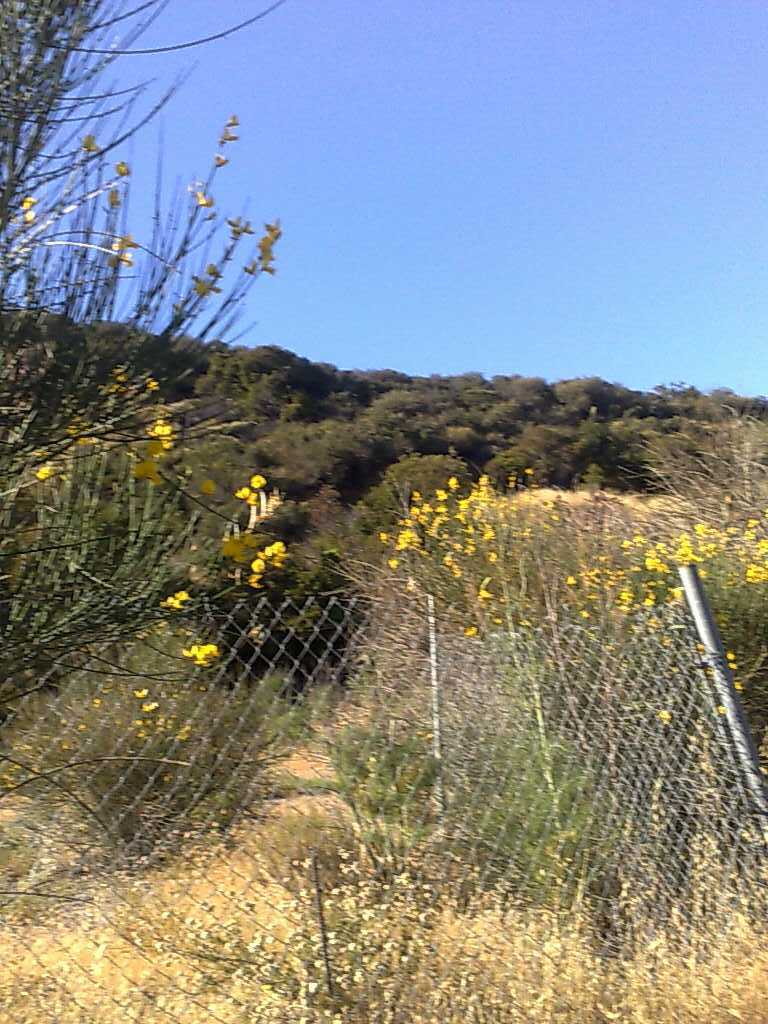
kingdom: Plantae
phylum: Tracheophyta
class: Magnoliopsida
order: Fabales
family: Fabaceae
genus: Spartium
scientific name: Spartium junceum
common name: Spanish broom
